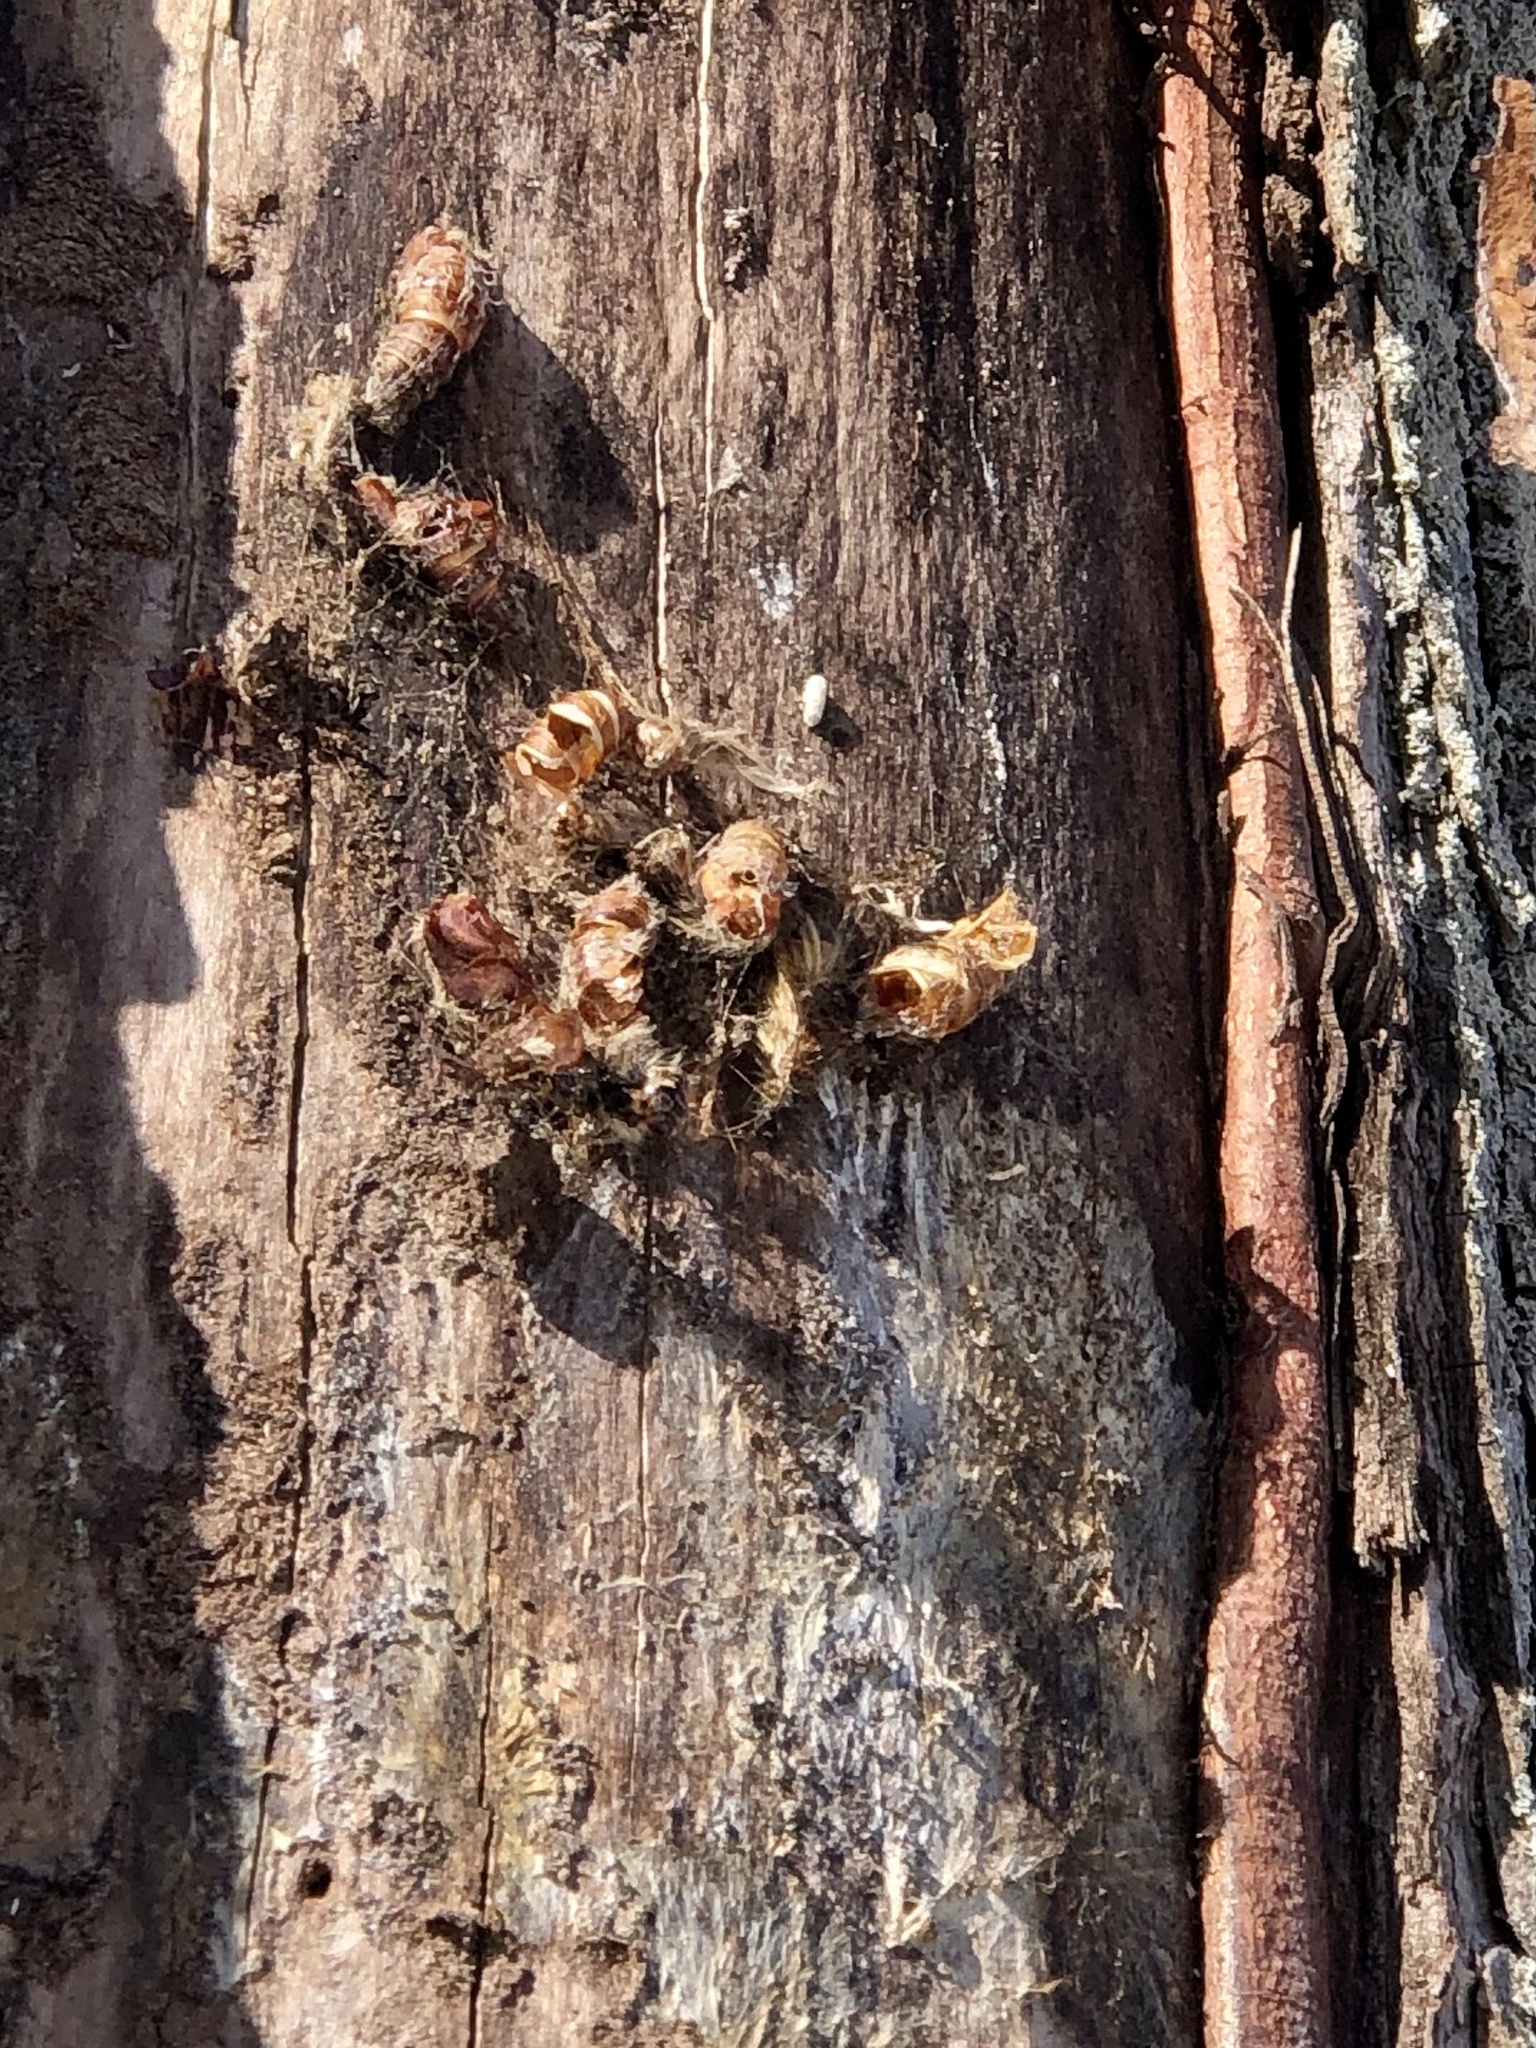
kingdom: Animalia
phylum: Arthropoda
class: Insecta
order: Lepidoptera
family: Erebidae
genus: Lymantria
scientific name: Lymantria dispar
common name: Gypsy moth
